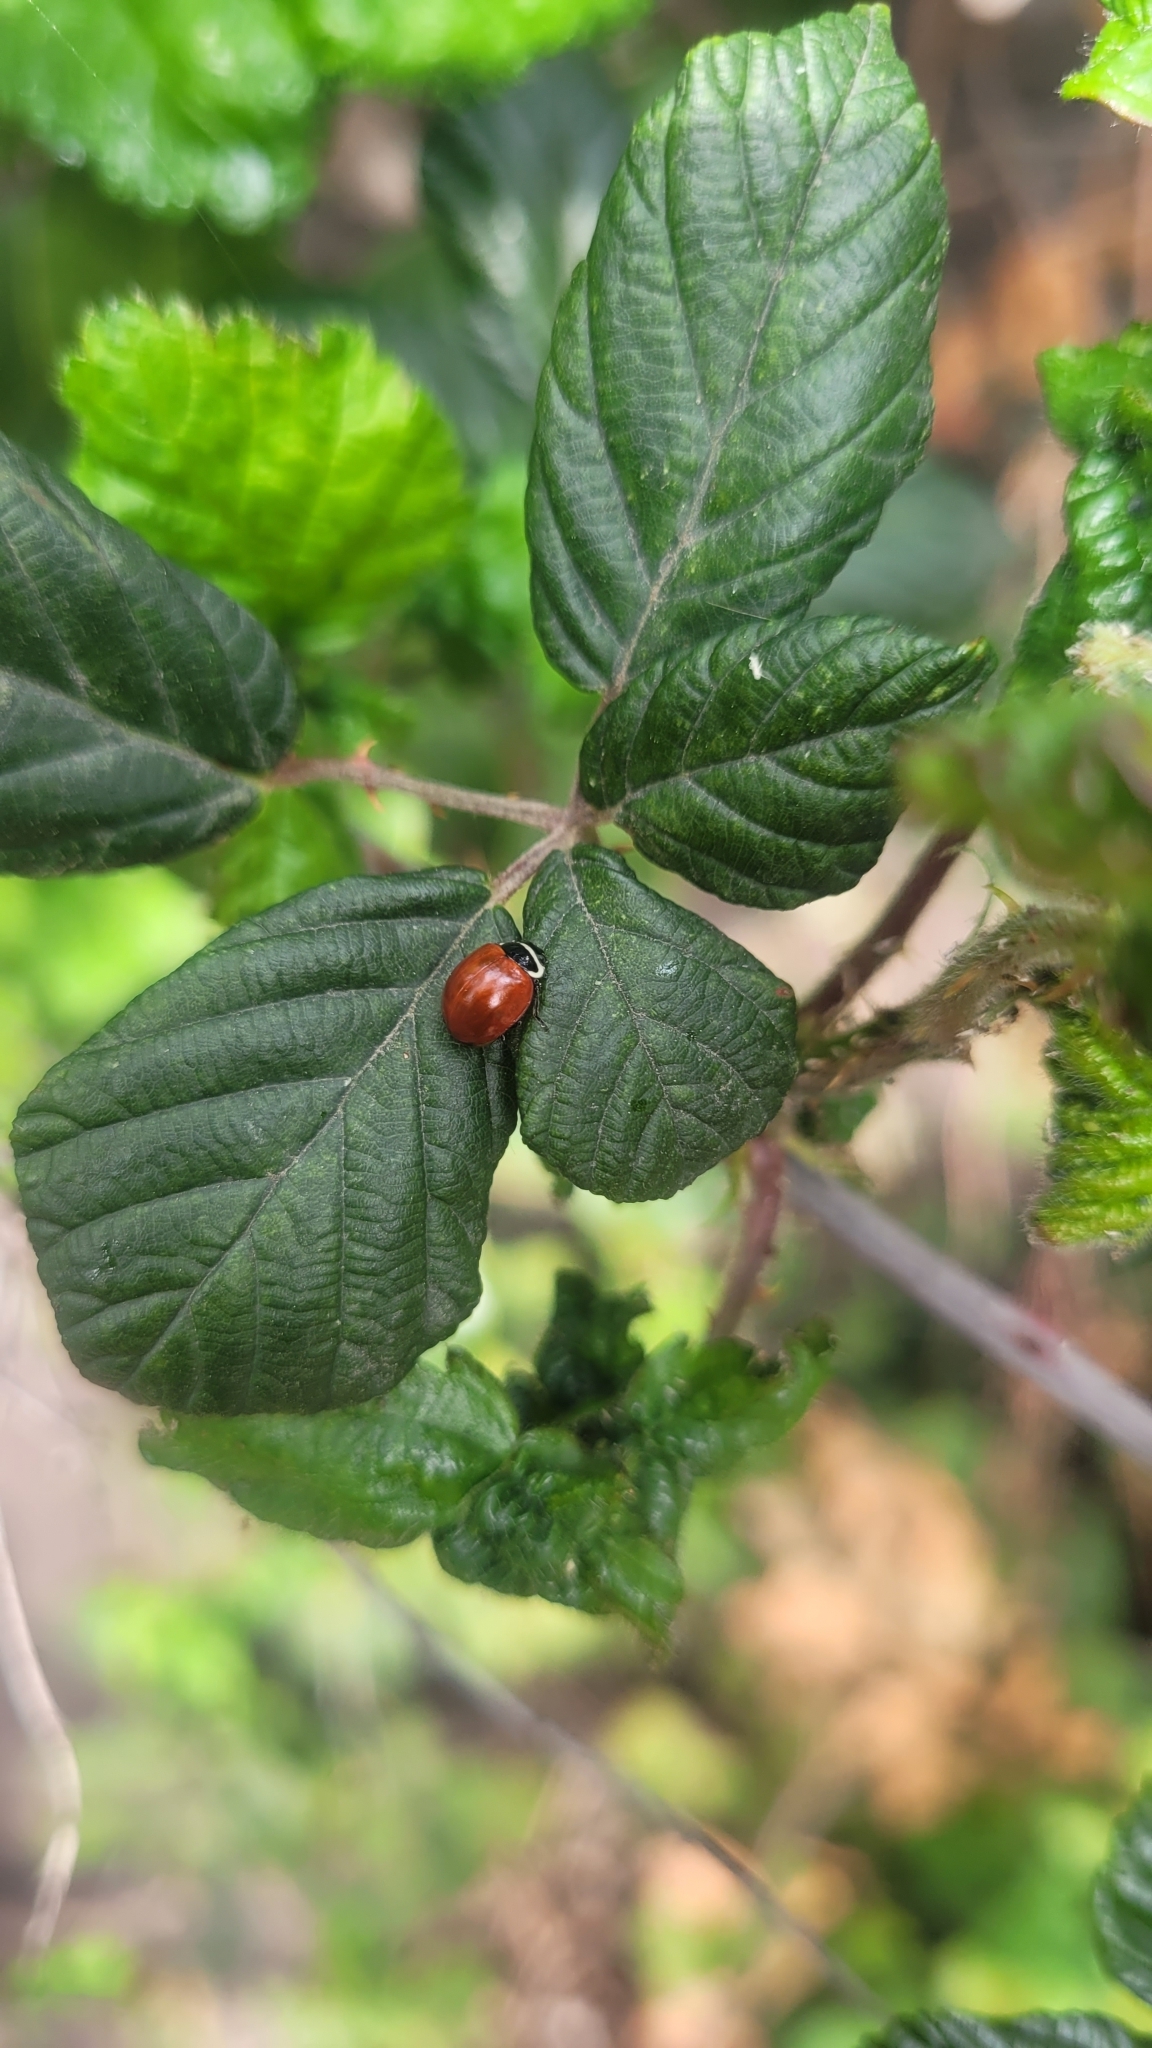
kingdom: Animalia
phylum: Arthropoda
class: Insecta
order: Coleoptera
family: Coccinellidae
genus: Cycloneda
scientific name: Cycloneda
